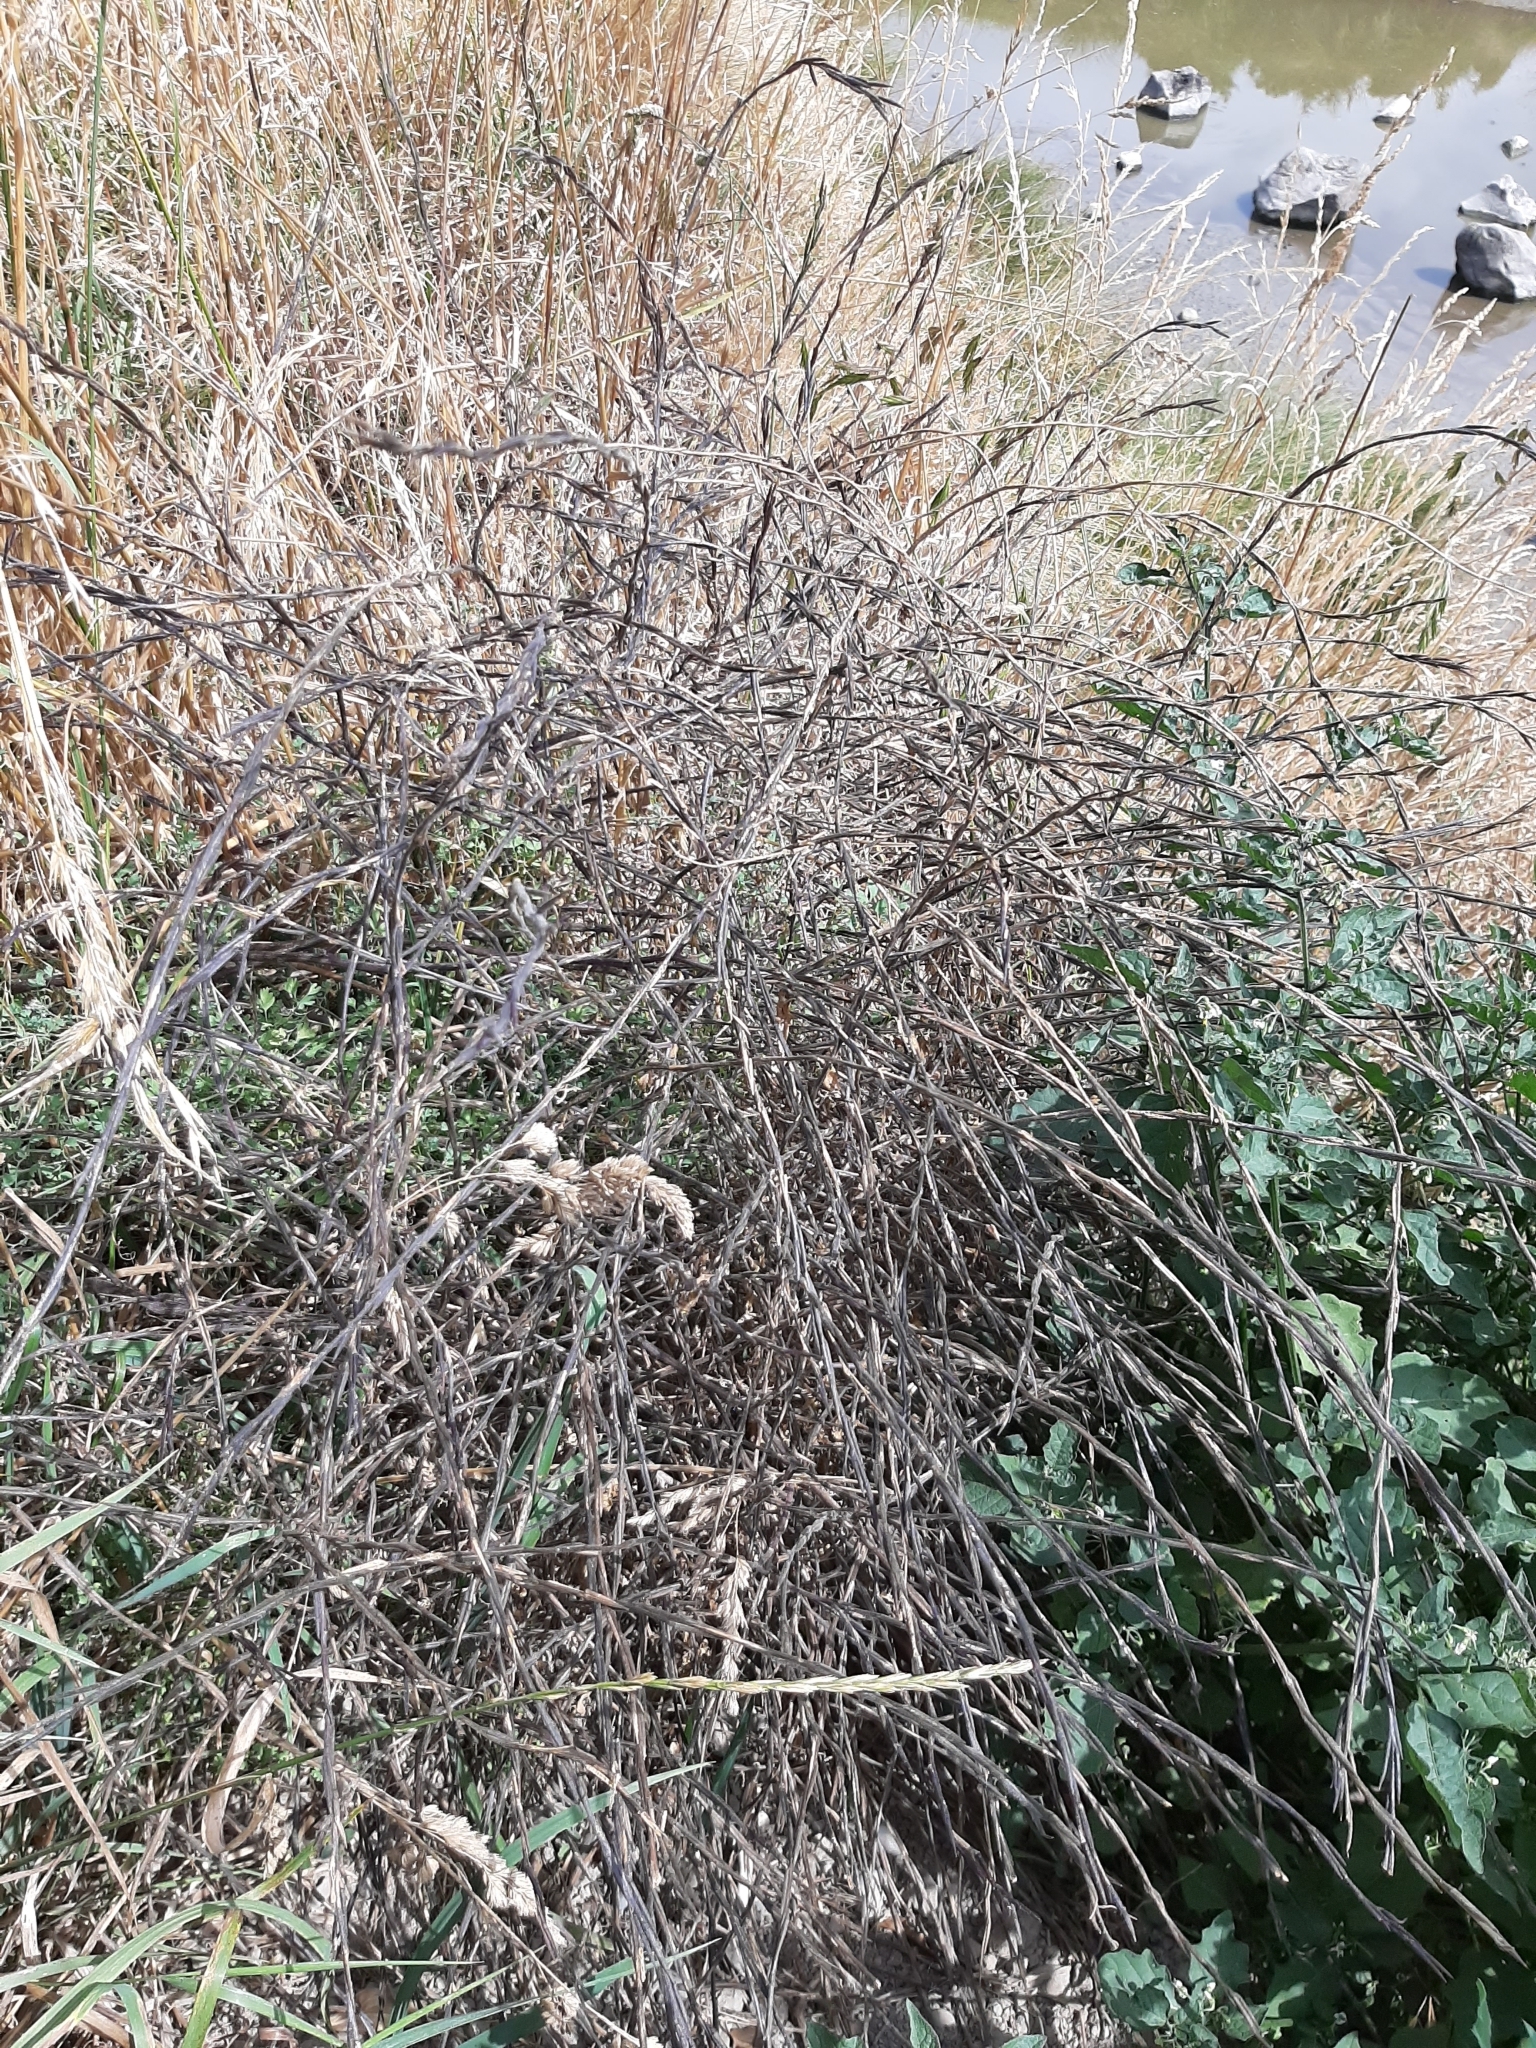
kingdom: Plantae
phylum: Tracheophyta
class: Magnoliopsida
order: Brassicales
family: Brassicaceae
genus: Sisymbrium
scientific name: Sisymbrium officinale
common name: Hedge mustard
